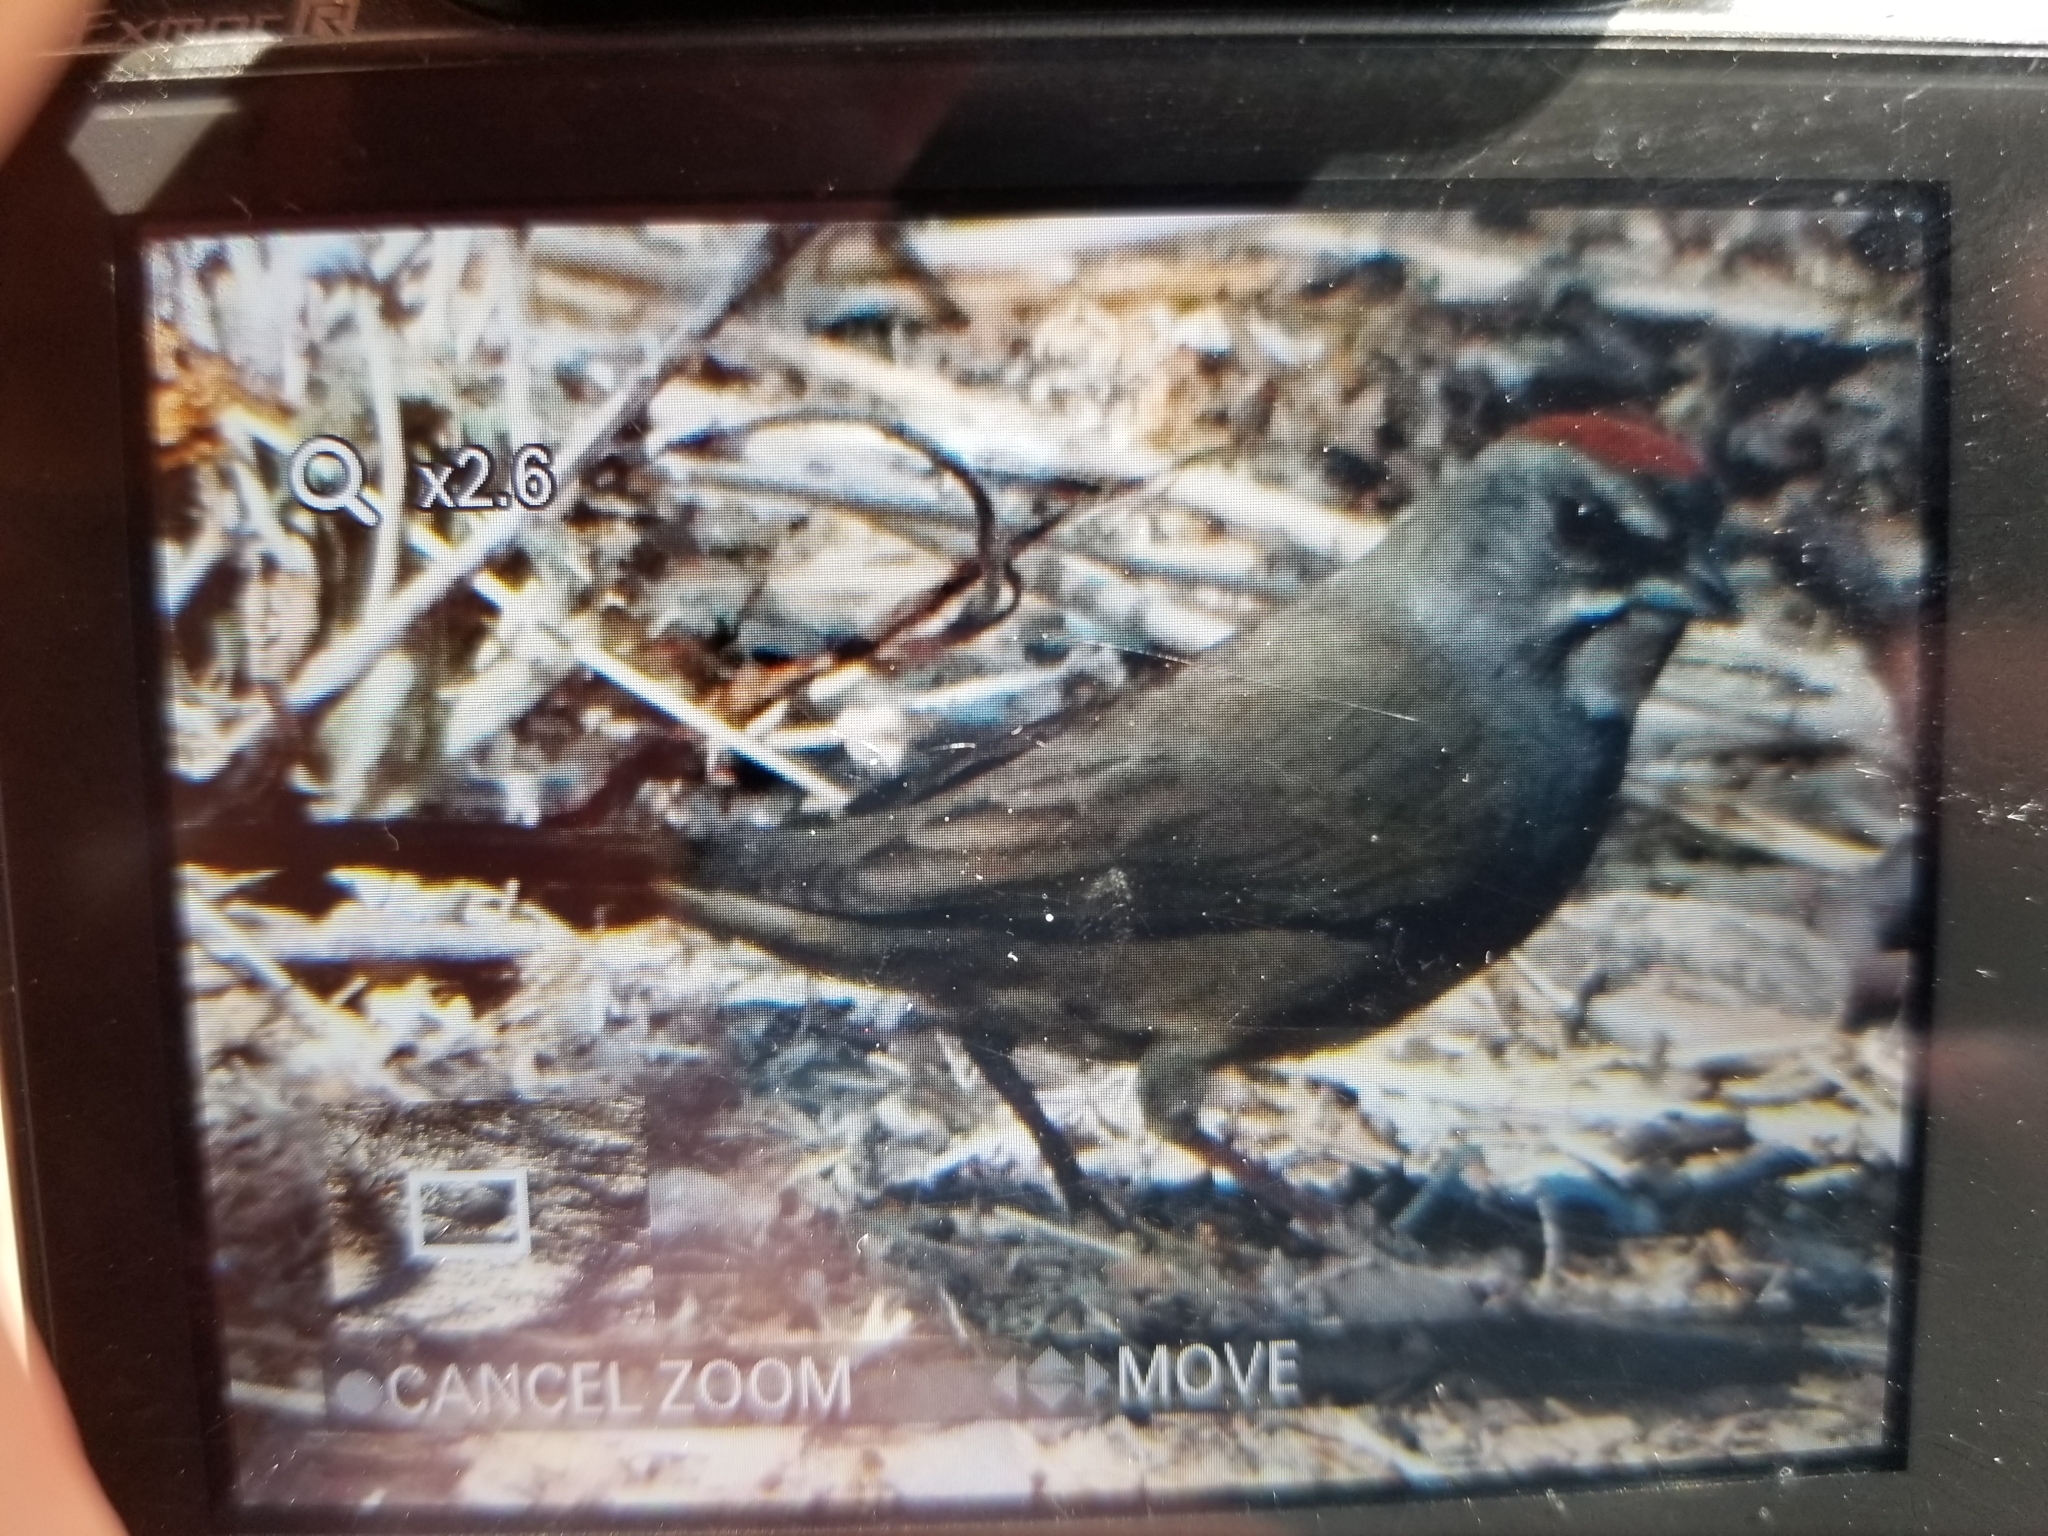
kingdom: Animalia
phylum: Chordata
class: Aves
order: Passeriformes
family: Passerellidae
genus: Pipilo
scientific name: Pipilo chlorurus
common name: Green-tailed towhee
